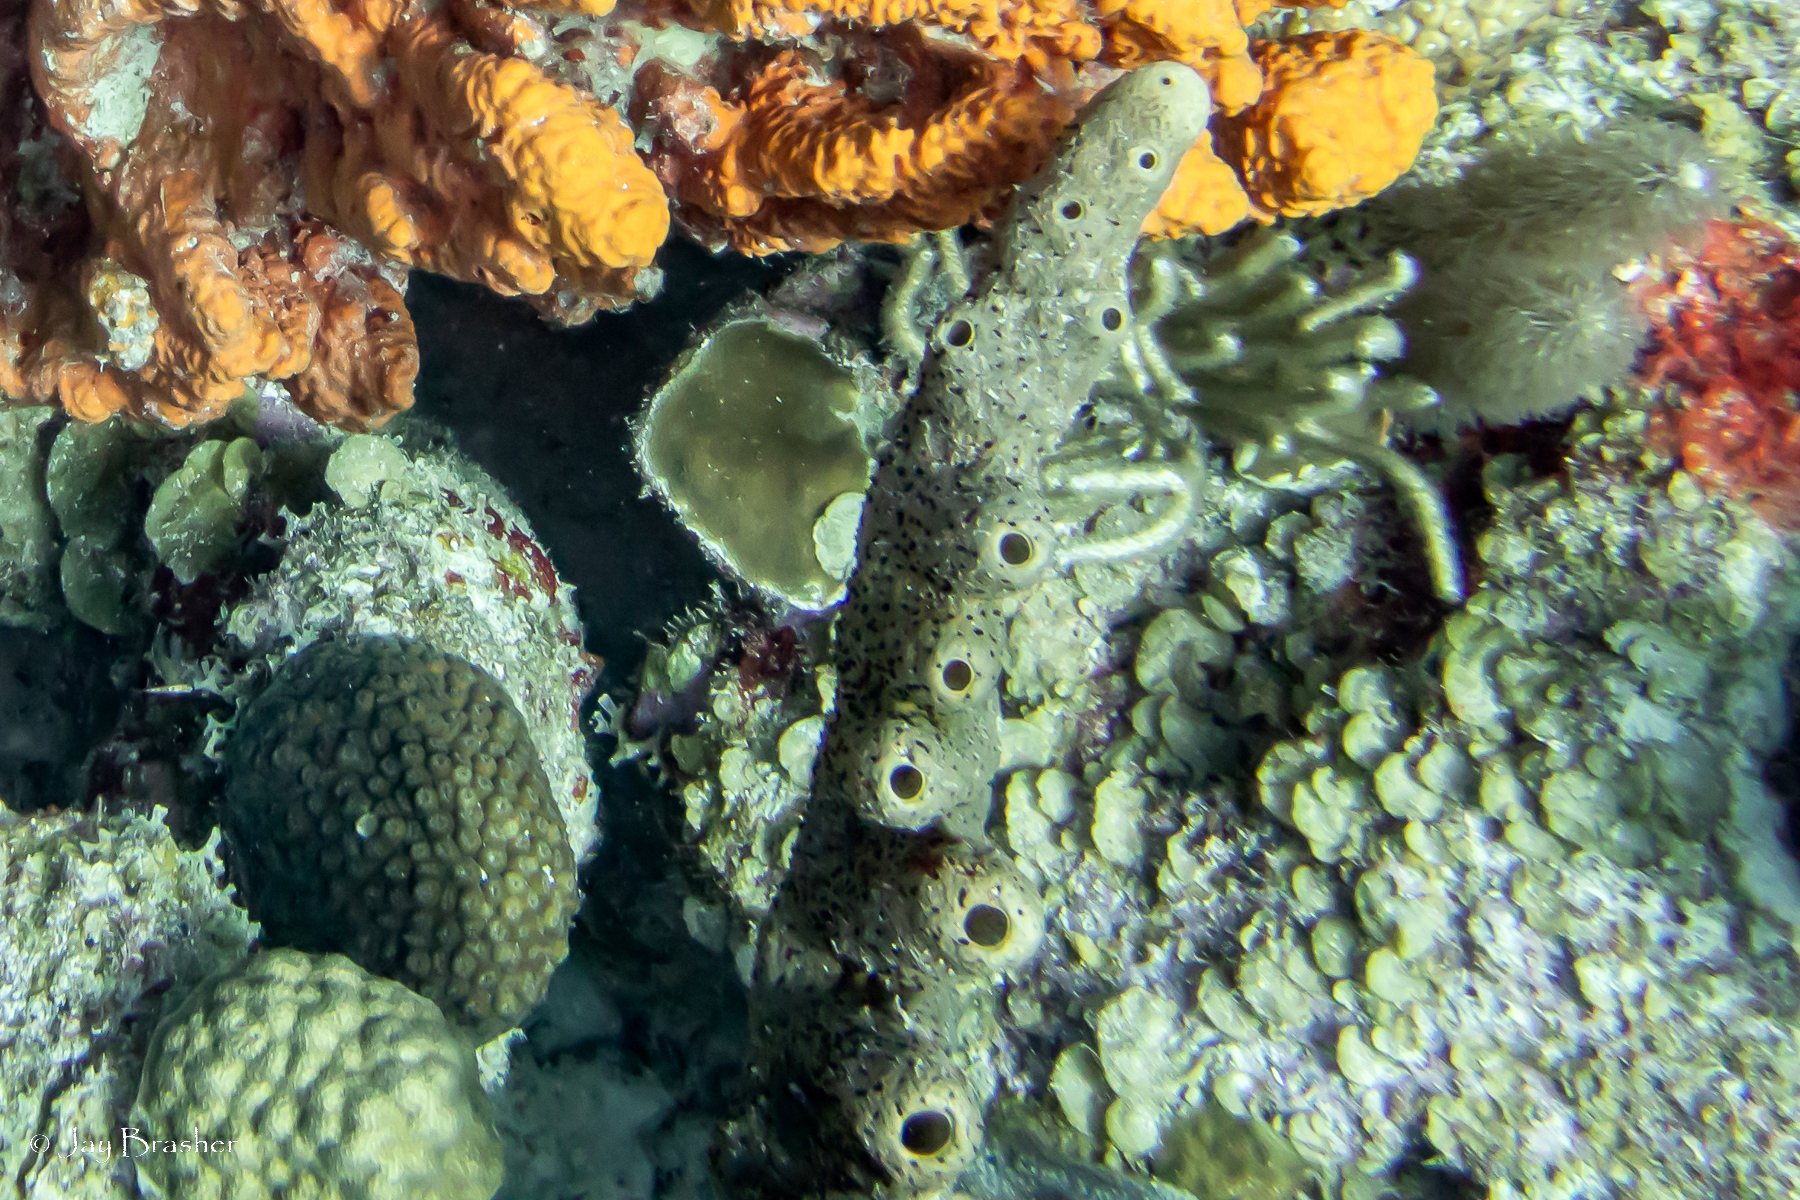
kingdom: Animalia
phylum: Porifera
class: Demospongiae
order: Agelasida
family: Agelasidae
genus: Agelas
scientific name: Agelas conifera
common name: Brown tube sponge
